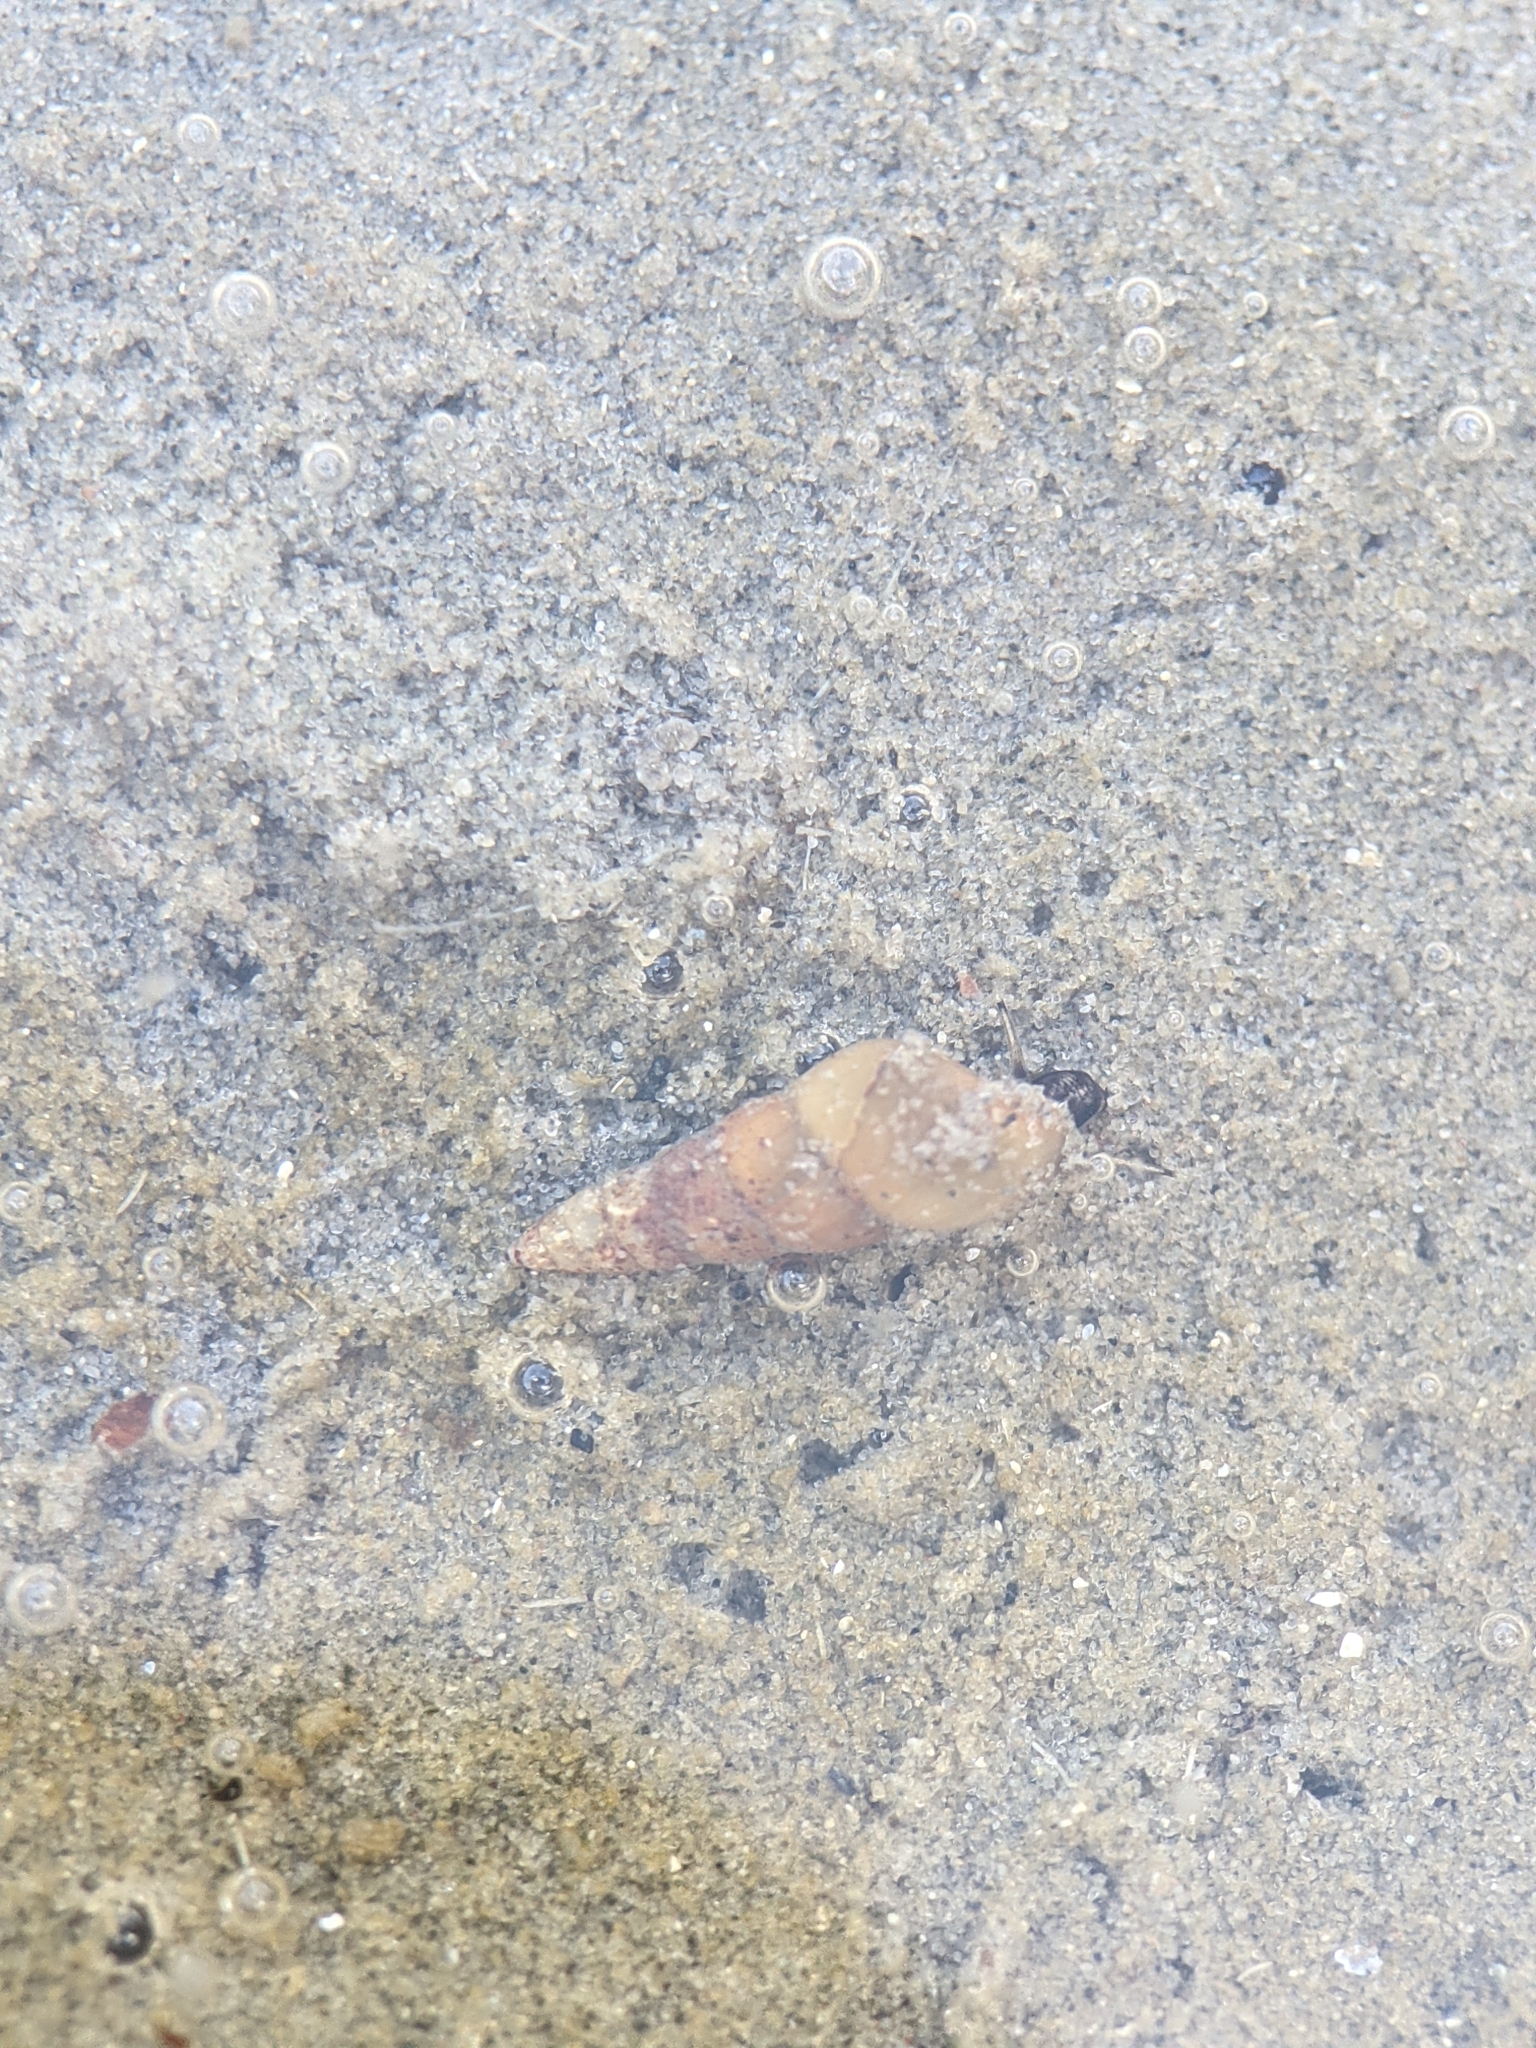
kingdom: Animalia
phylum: Mollusca
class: Gastropoda
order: Littorinimorpha
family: Hydrobiidae
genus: Peringia
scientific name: Peringia ulvae
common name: Laver spire shell
